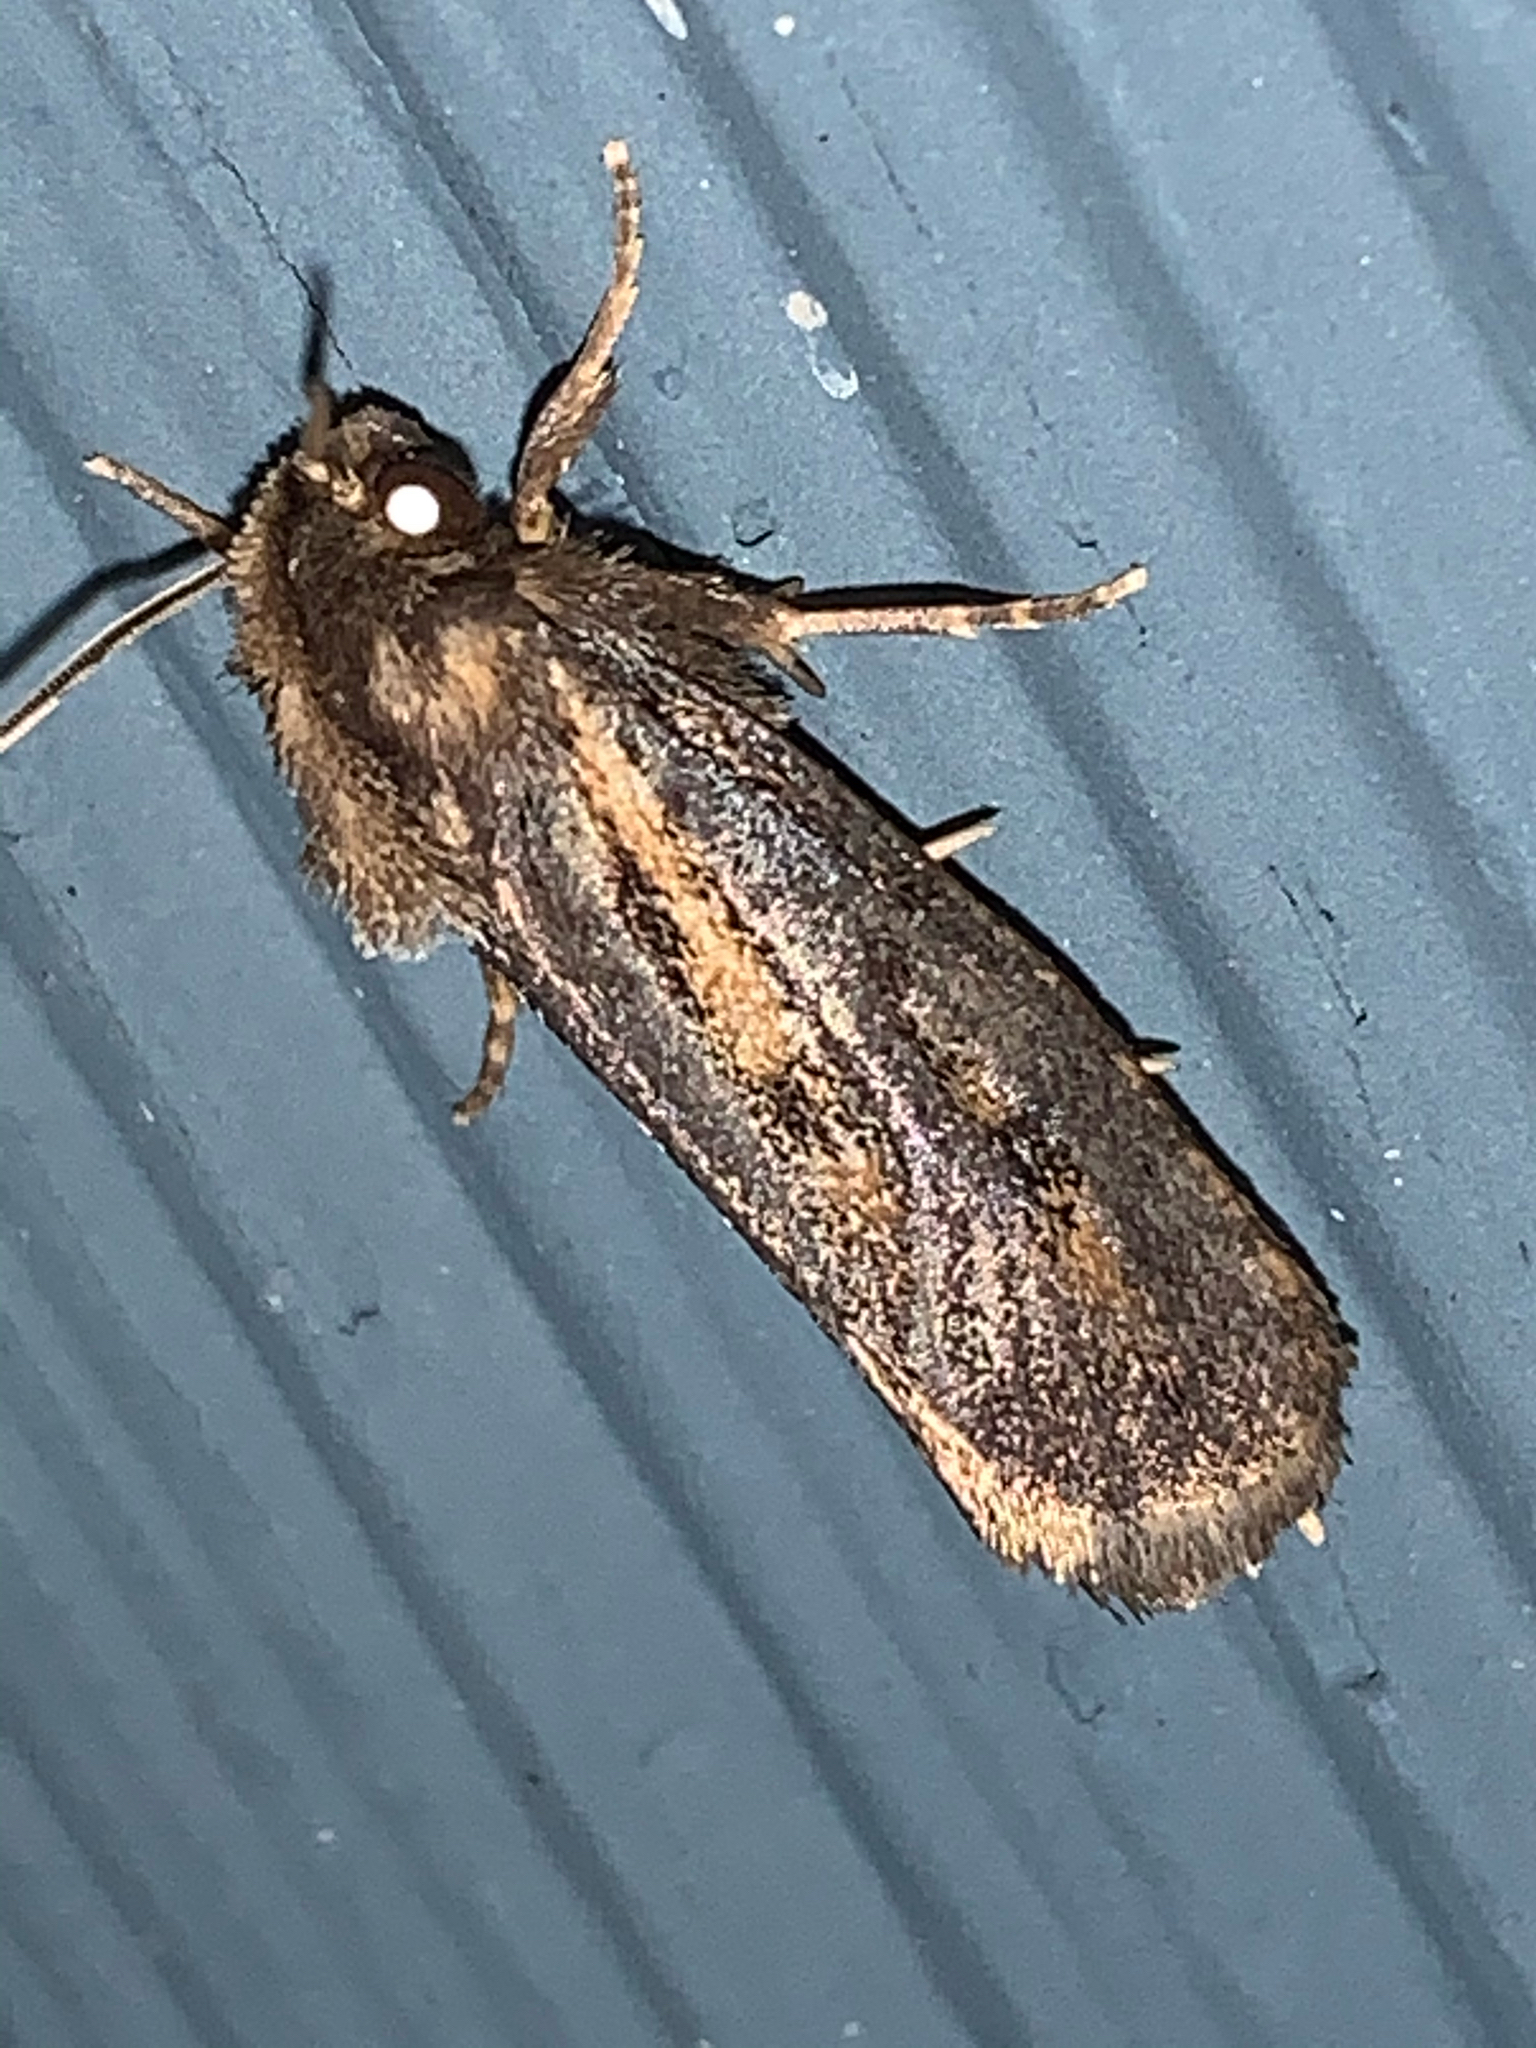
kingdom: Animalia
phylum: Arthropoda
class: Insecta
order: Lepidoptera
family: Tineidae
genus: Acrolophus
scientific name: Acrolophus popeanella
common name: Clemens' grass tubeworm moth
